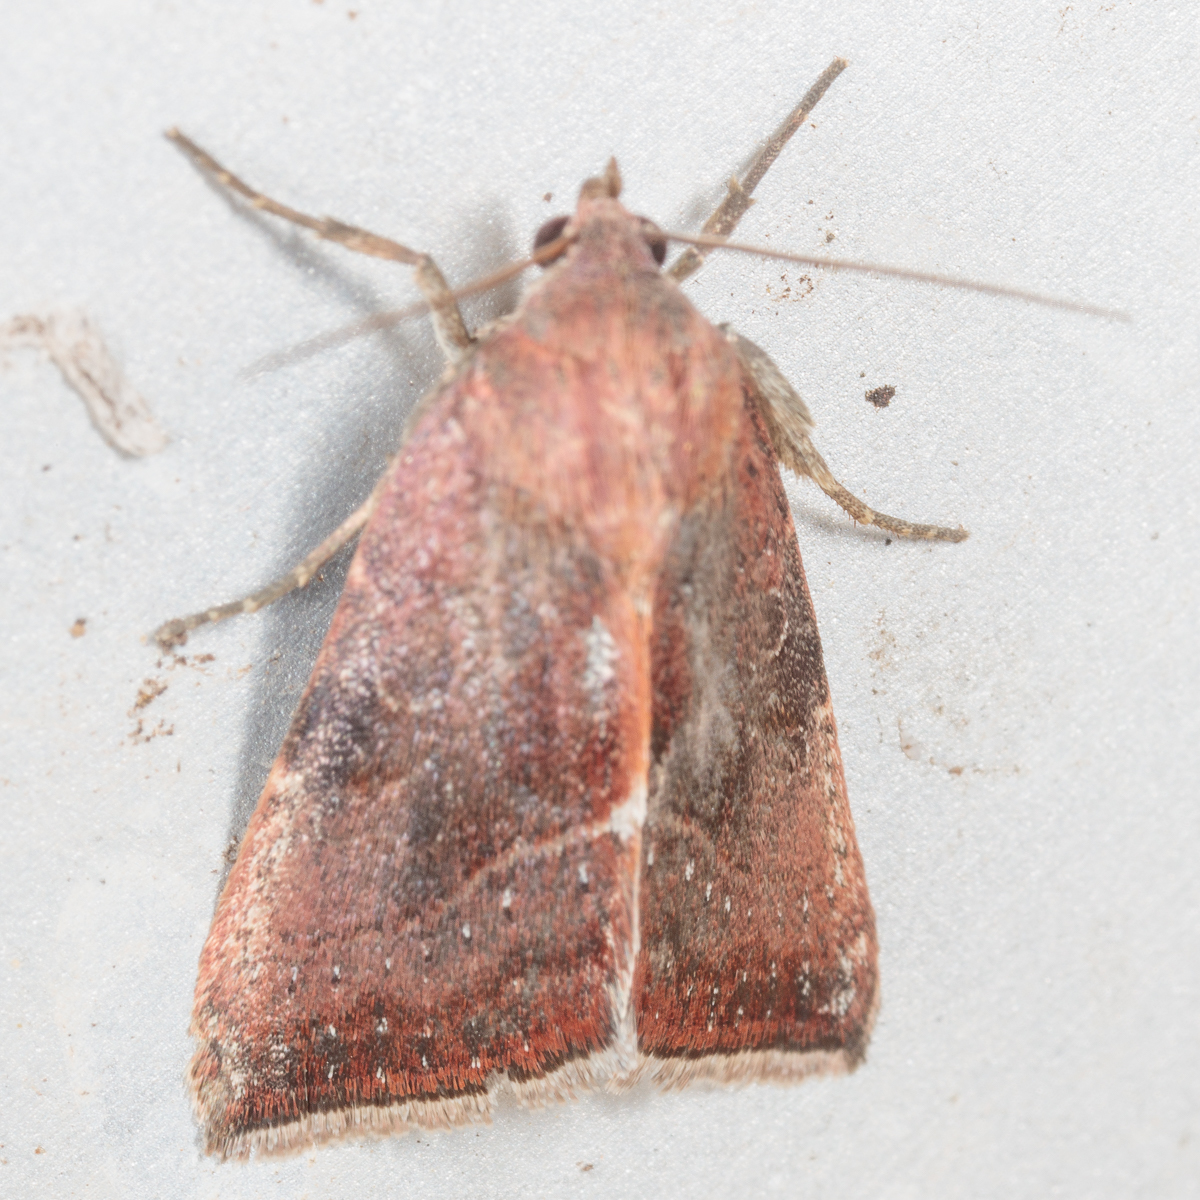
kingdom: Animalia
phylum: Arthropoda
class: Insecta
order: Lepidoptera
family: Noctuidae
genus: Galgula
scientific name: Galgula partita
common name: Wedgeling
